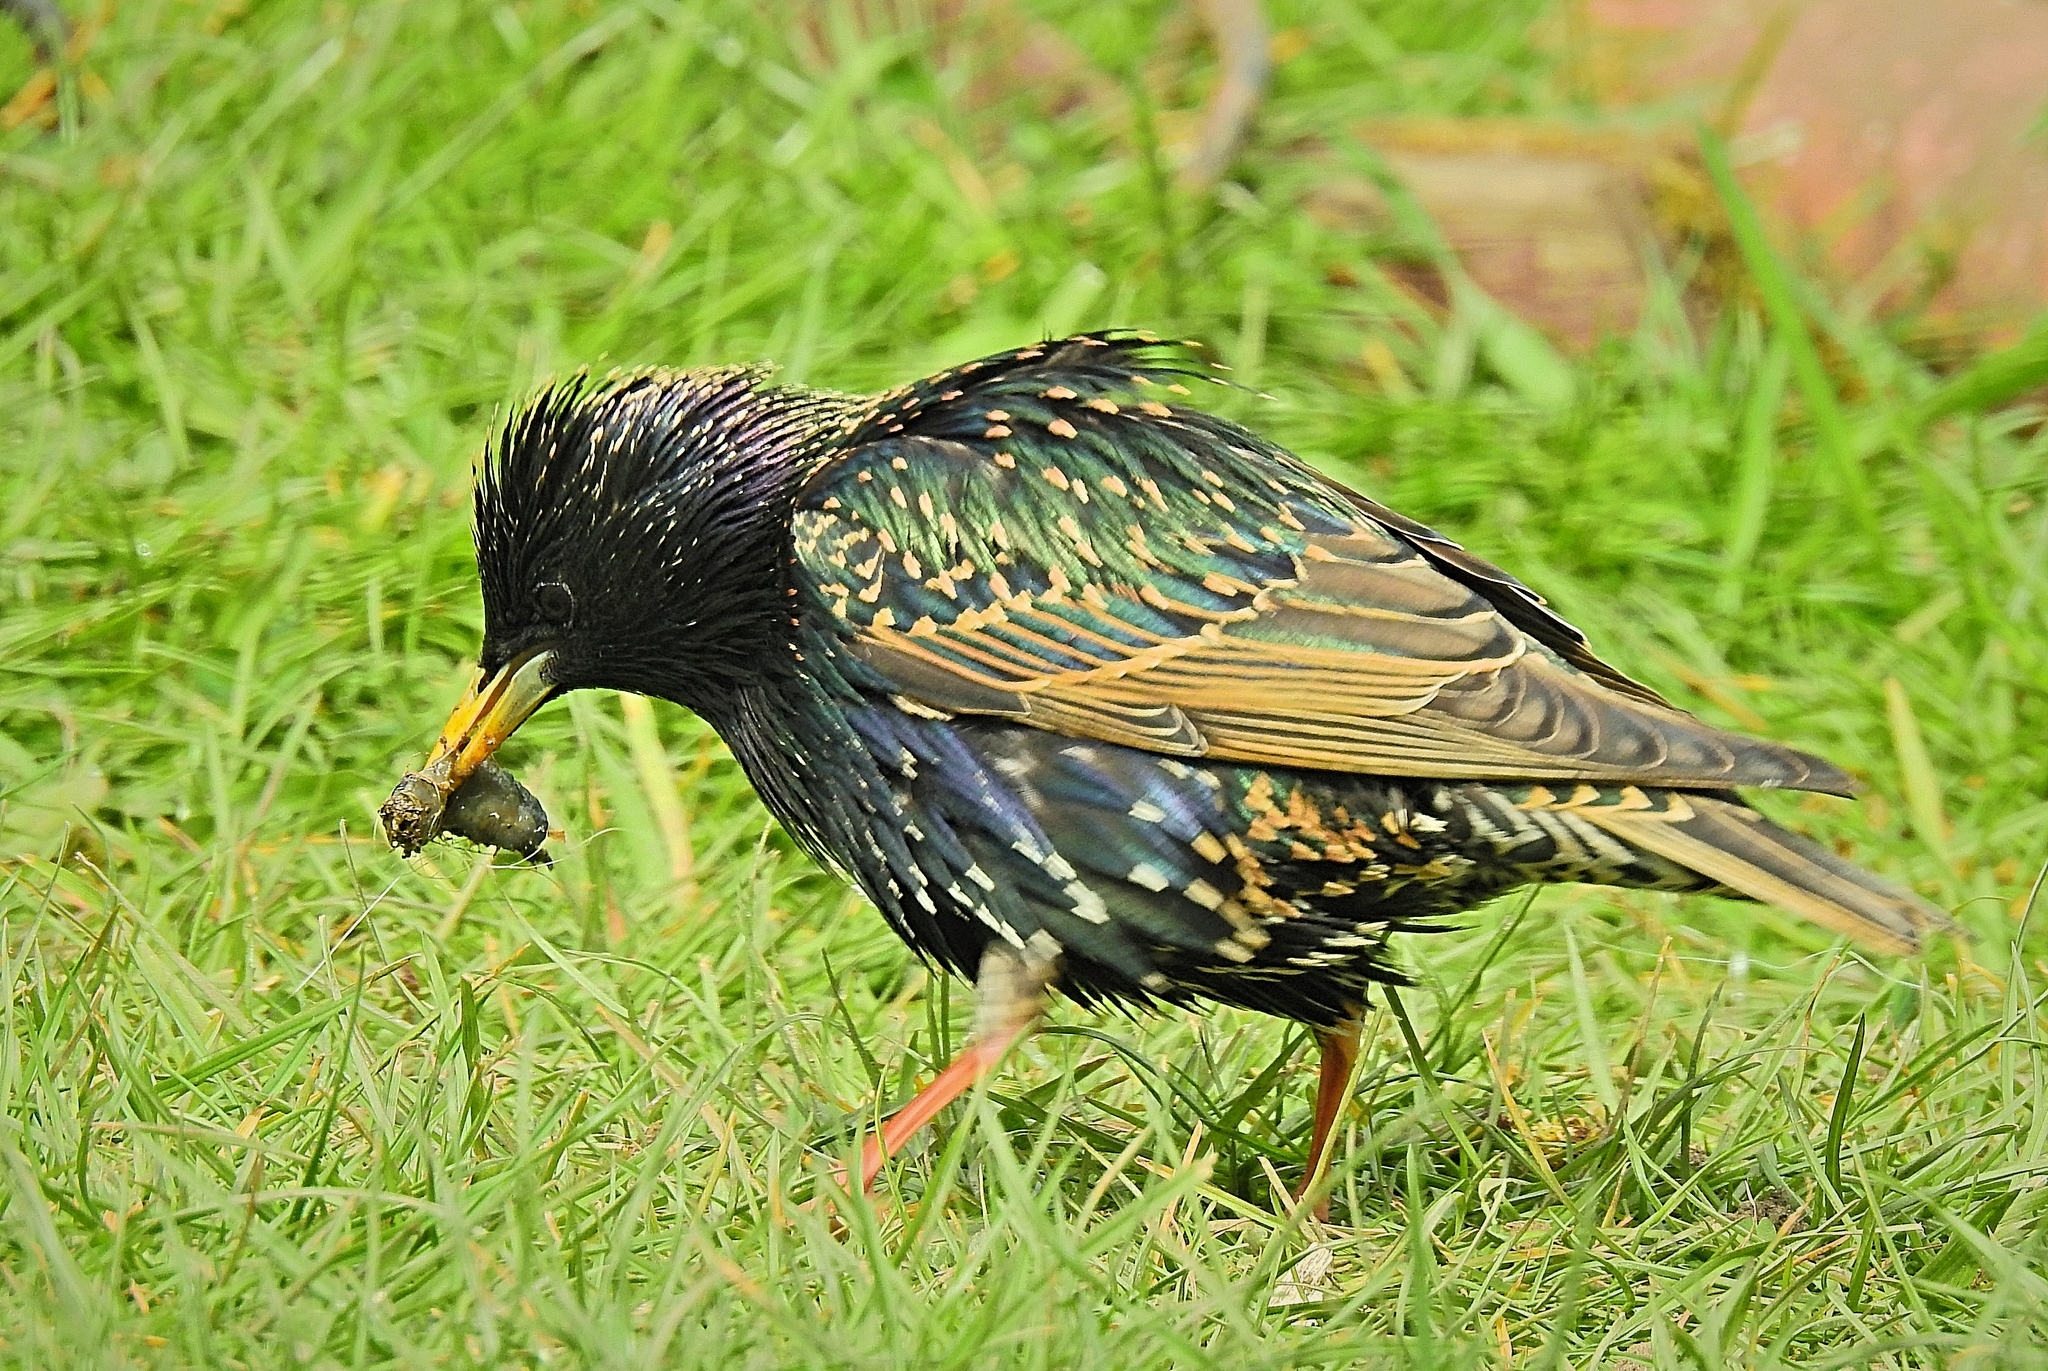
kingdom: Animalia
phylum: Chordata
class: Aves
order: Passeriformes
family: Sturnidae
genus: Sturnus
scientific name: Sturnus vulgaris
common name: Common starling
